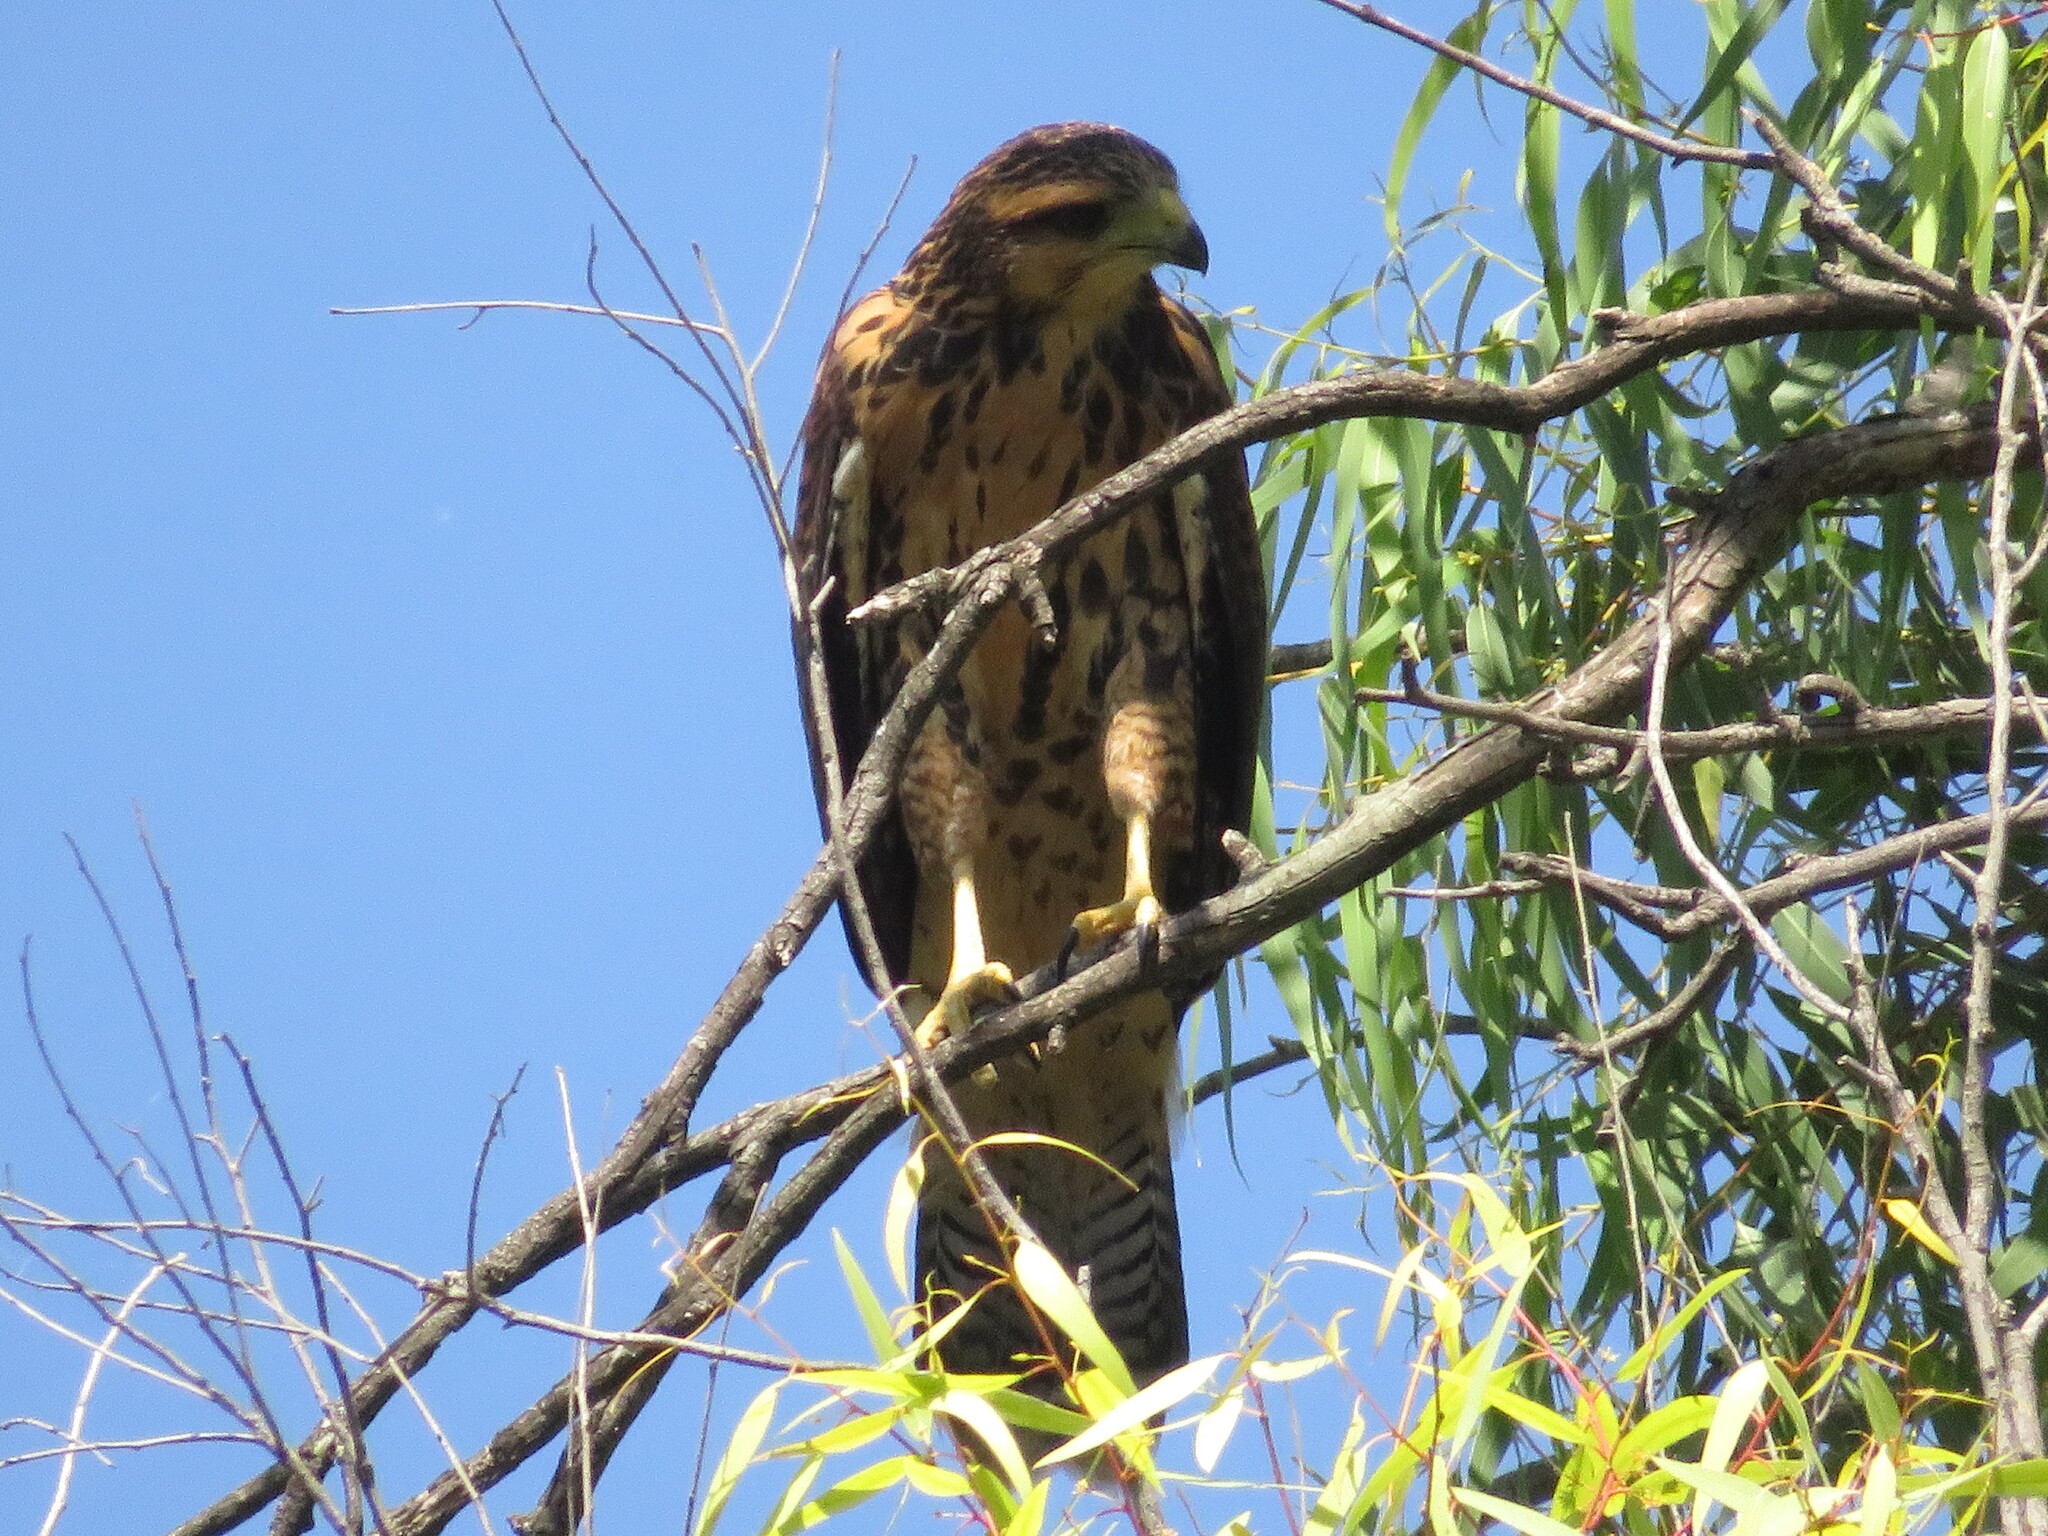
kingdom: Animalia
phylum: Chordata
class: Aves
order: Accipitriformes
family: Accipitridae
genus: Parabuteo
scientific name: Parabuteo unicinctus
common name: Harris's hawk
